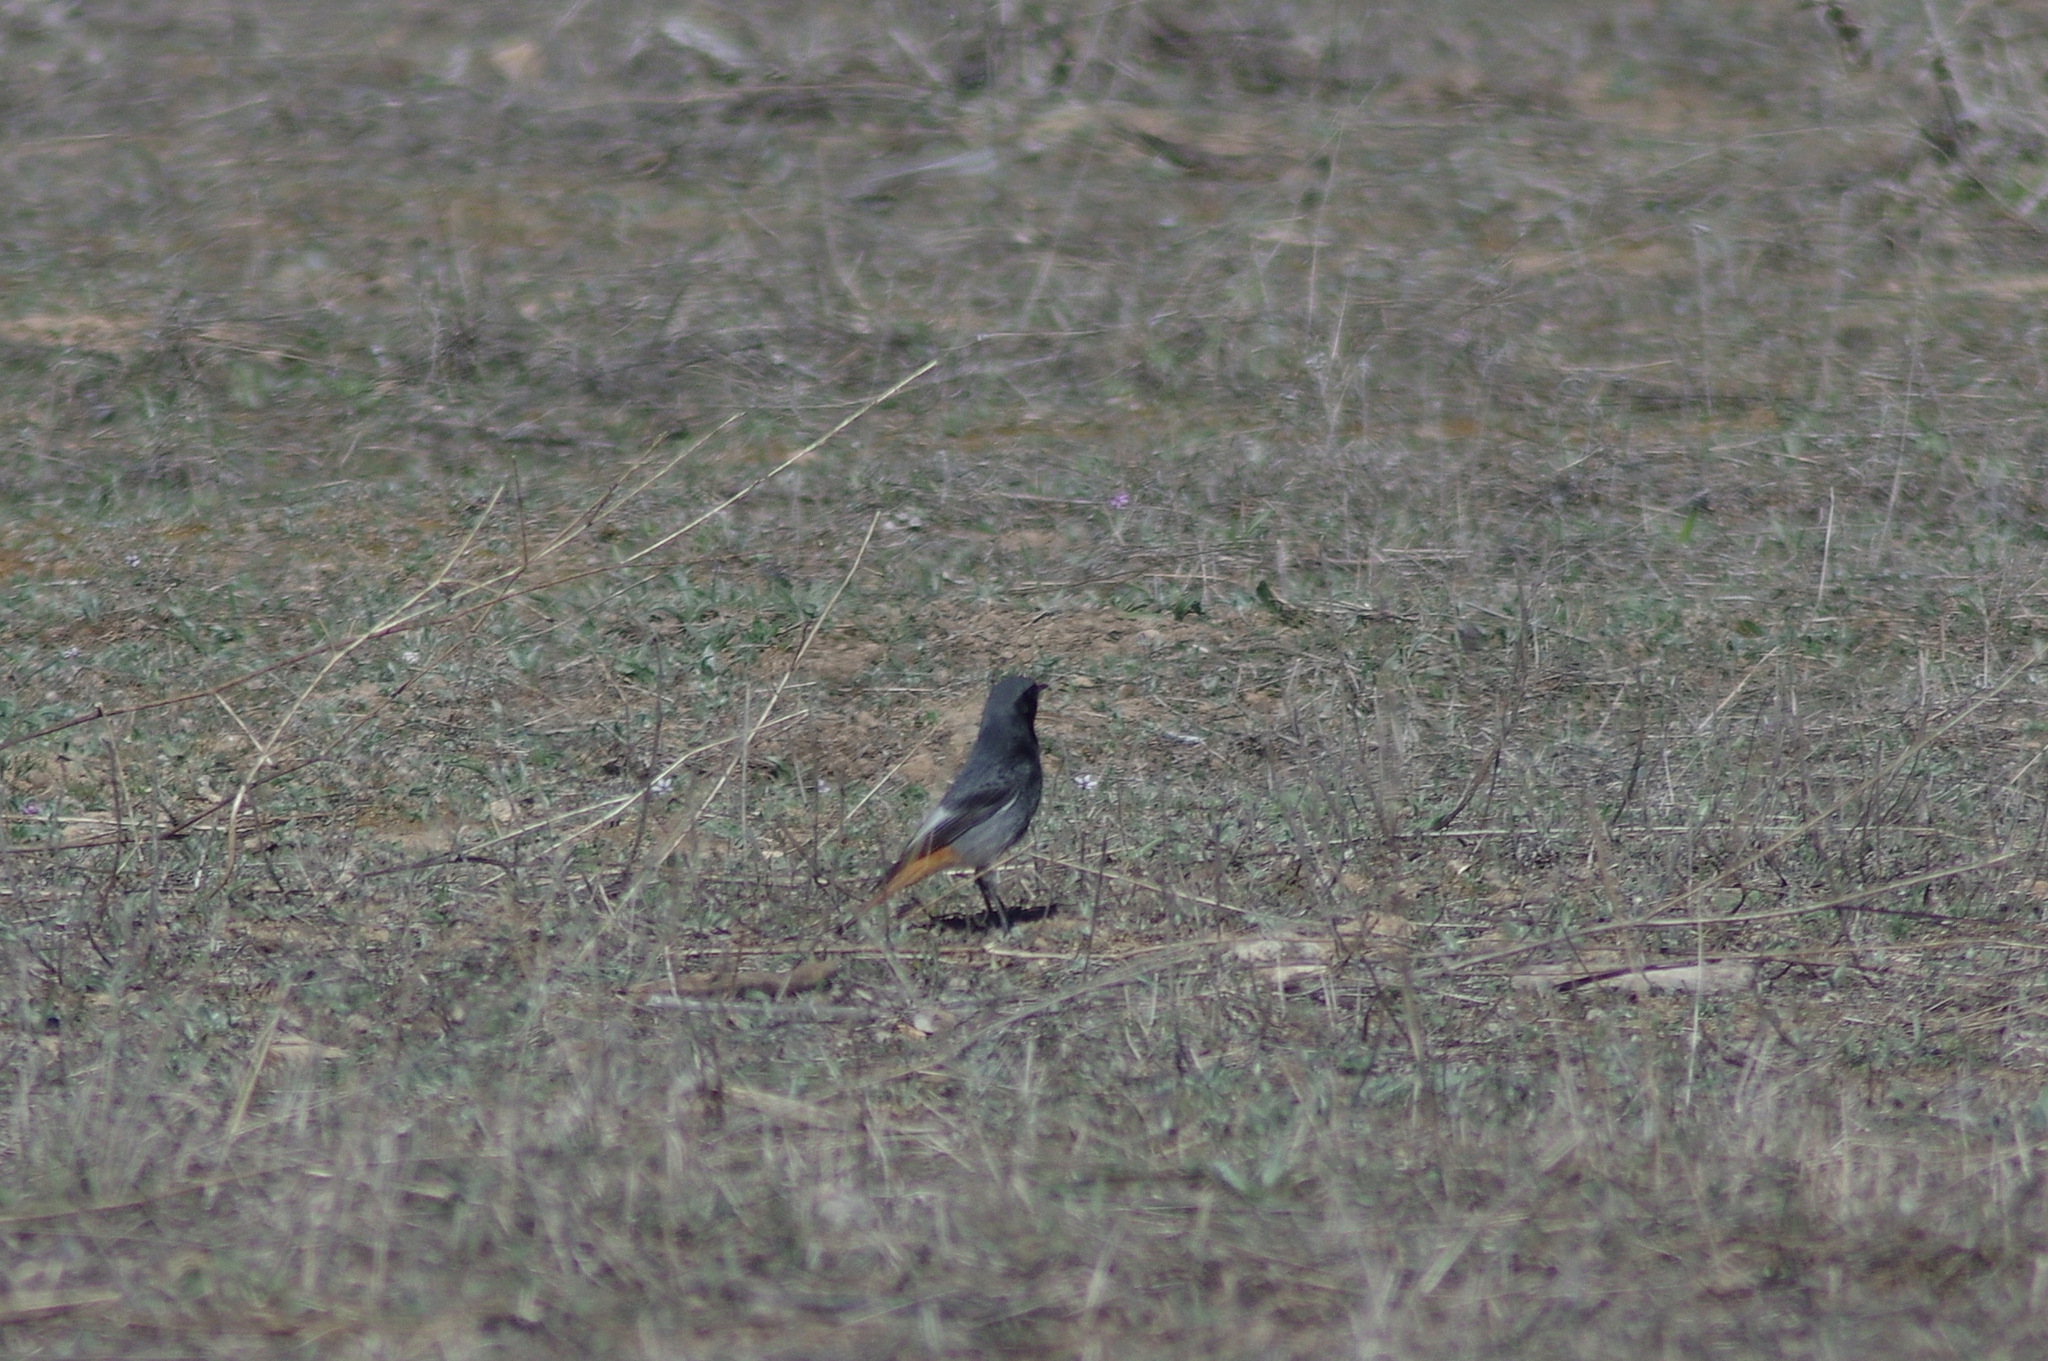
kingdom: Animalia
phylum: Chordata
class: Aves
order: Passeriformes
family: Muscicapidae
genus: Phoenicurus
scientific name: Phoenicurus ochruros
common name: Black redstart
